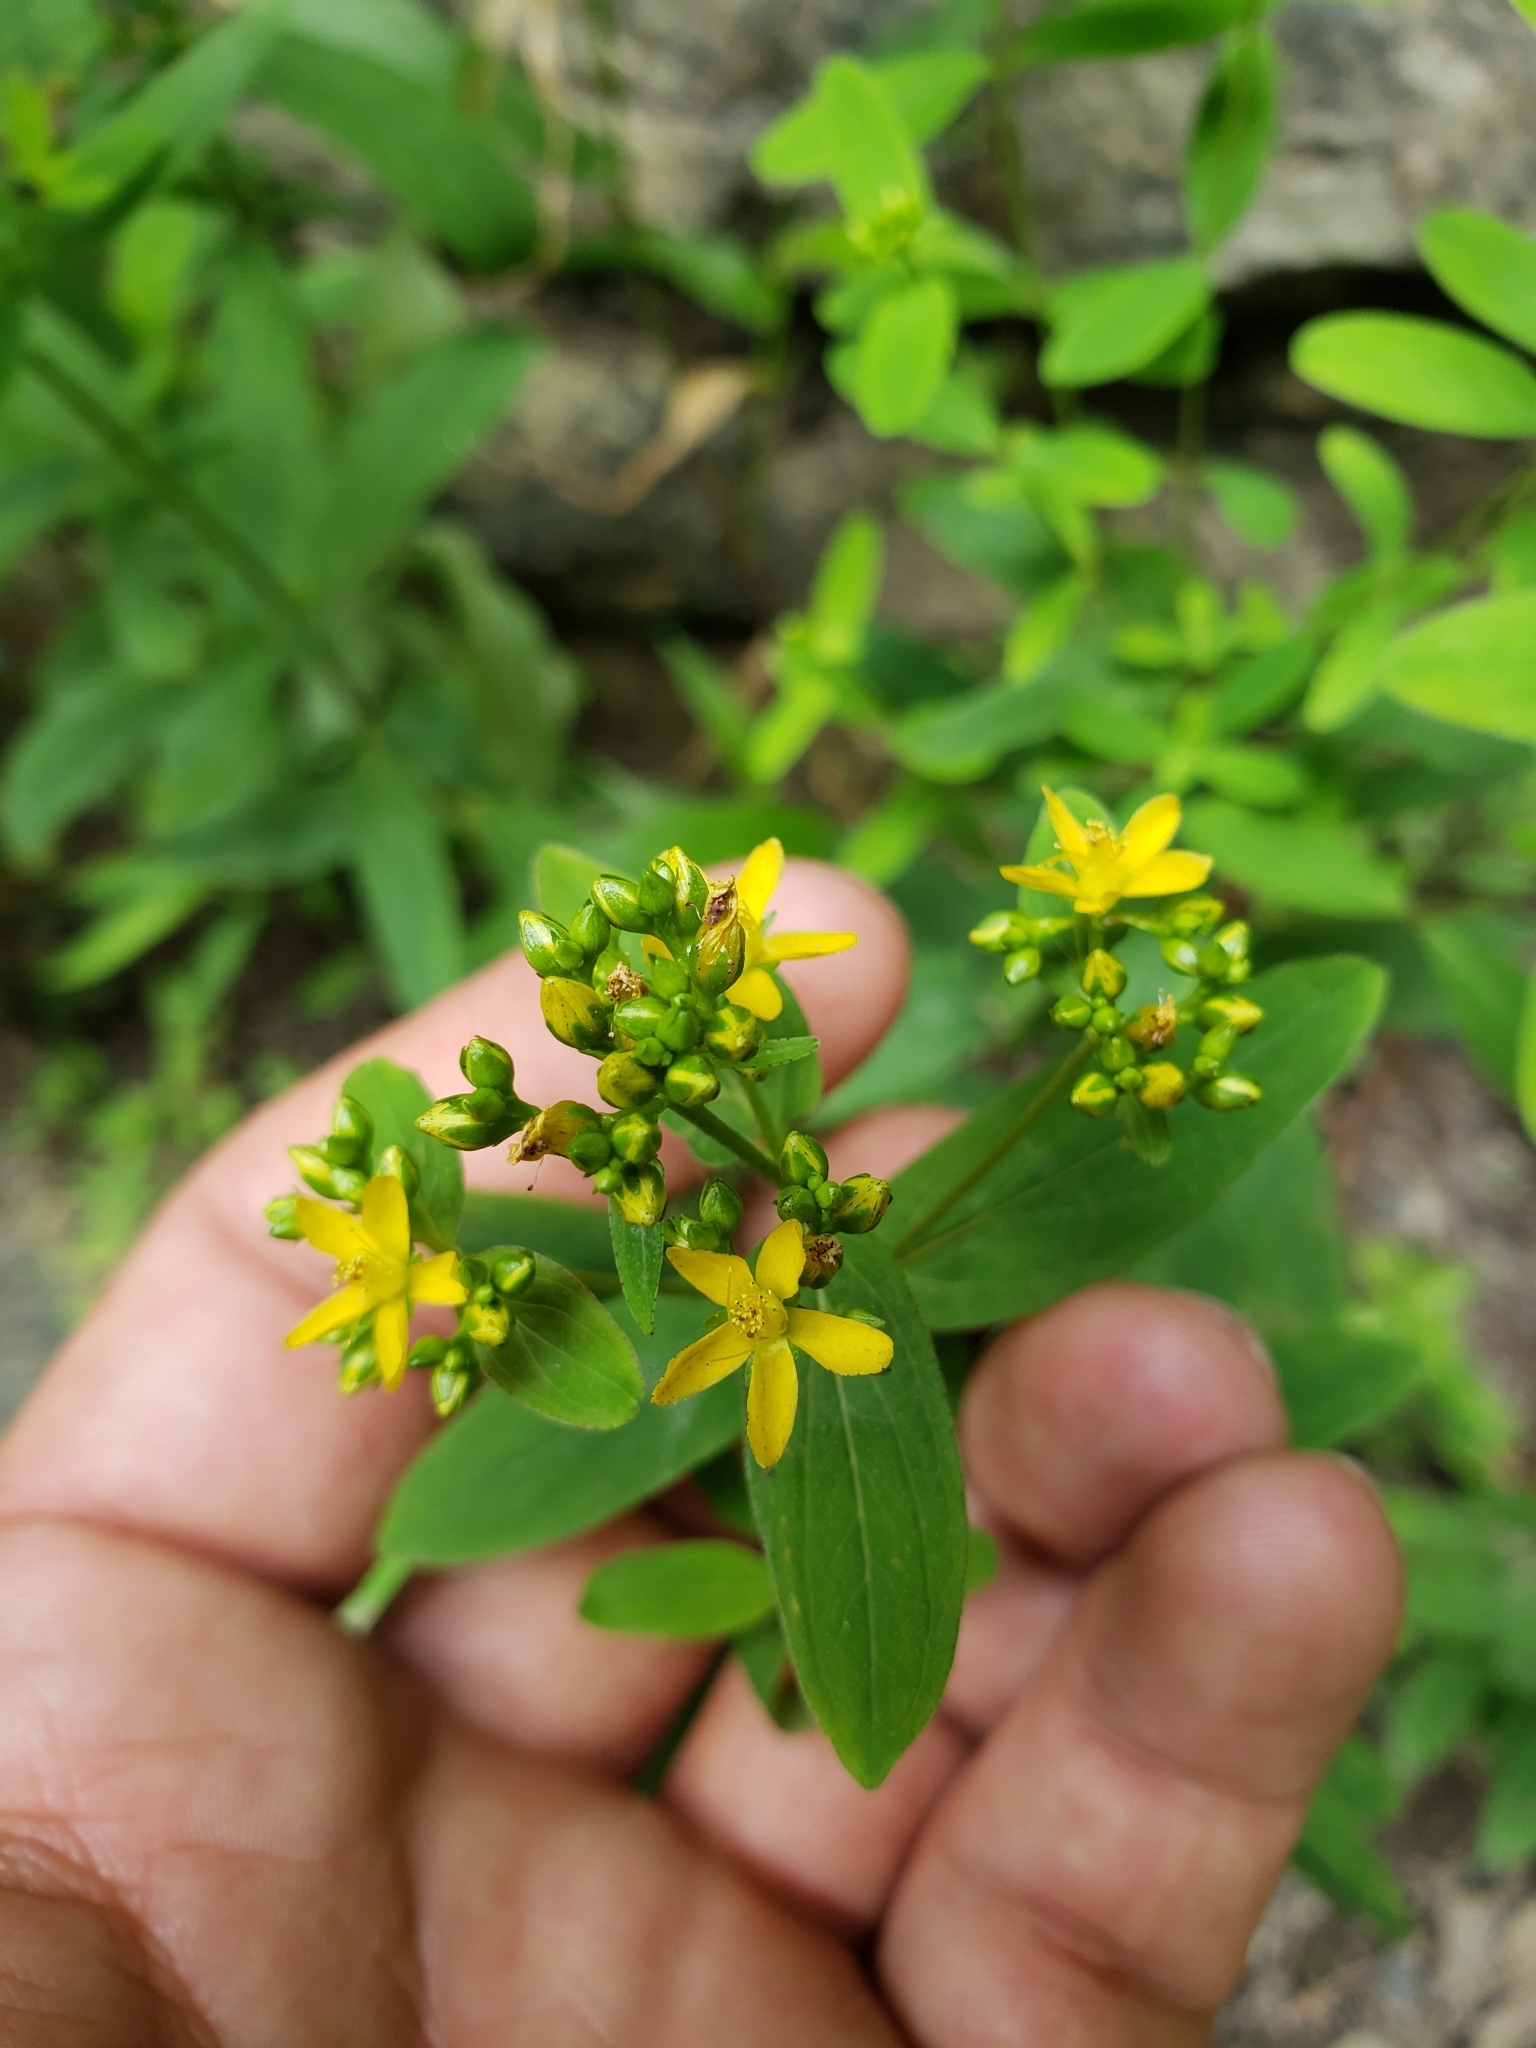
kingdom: Plantae
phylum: Tracheophyta
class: Magnoliopsida
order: Malpighiales
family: Hypericaceae
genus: Hypericum
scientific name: Hypericum punctatum
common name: Spotted st. john's-wort
